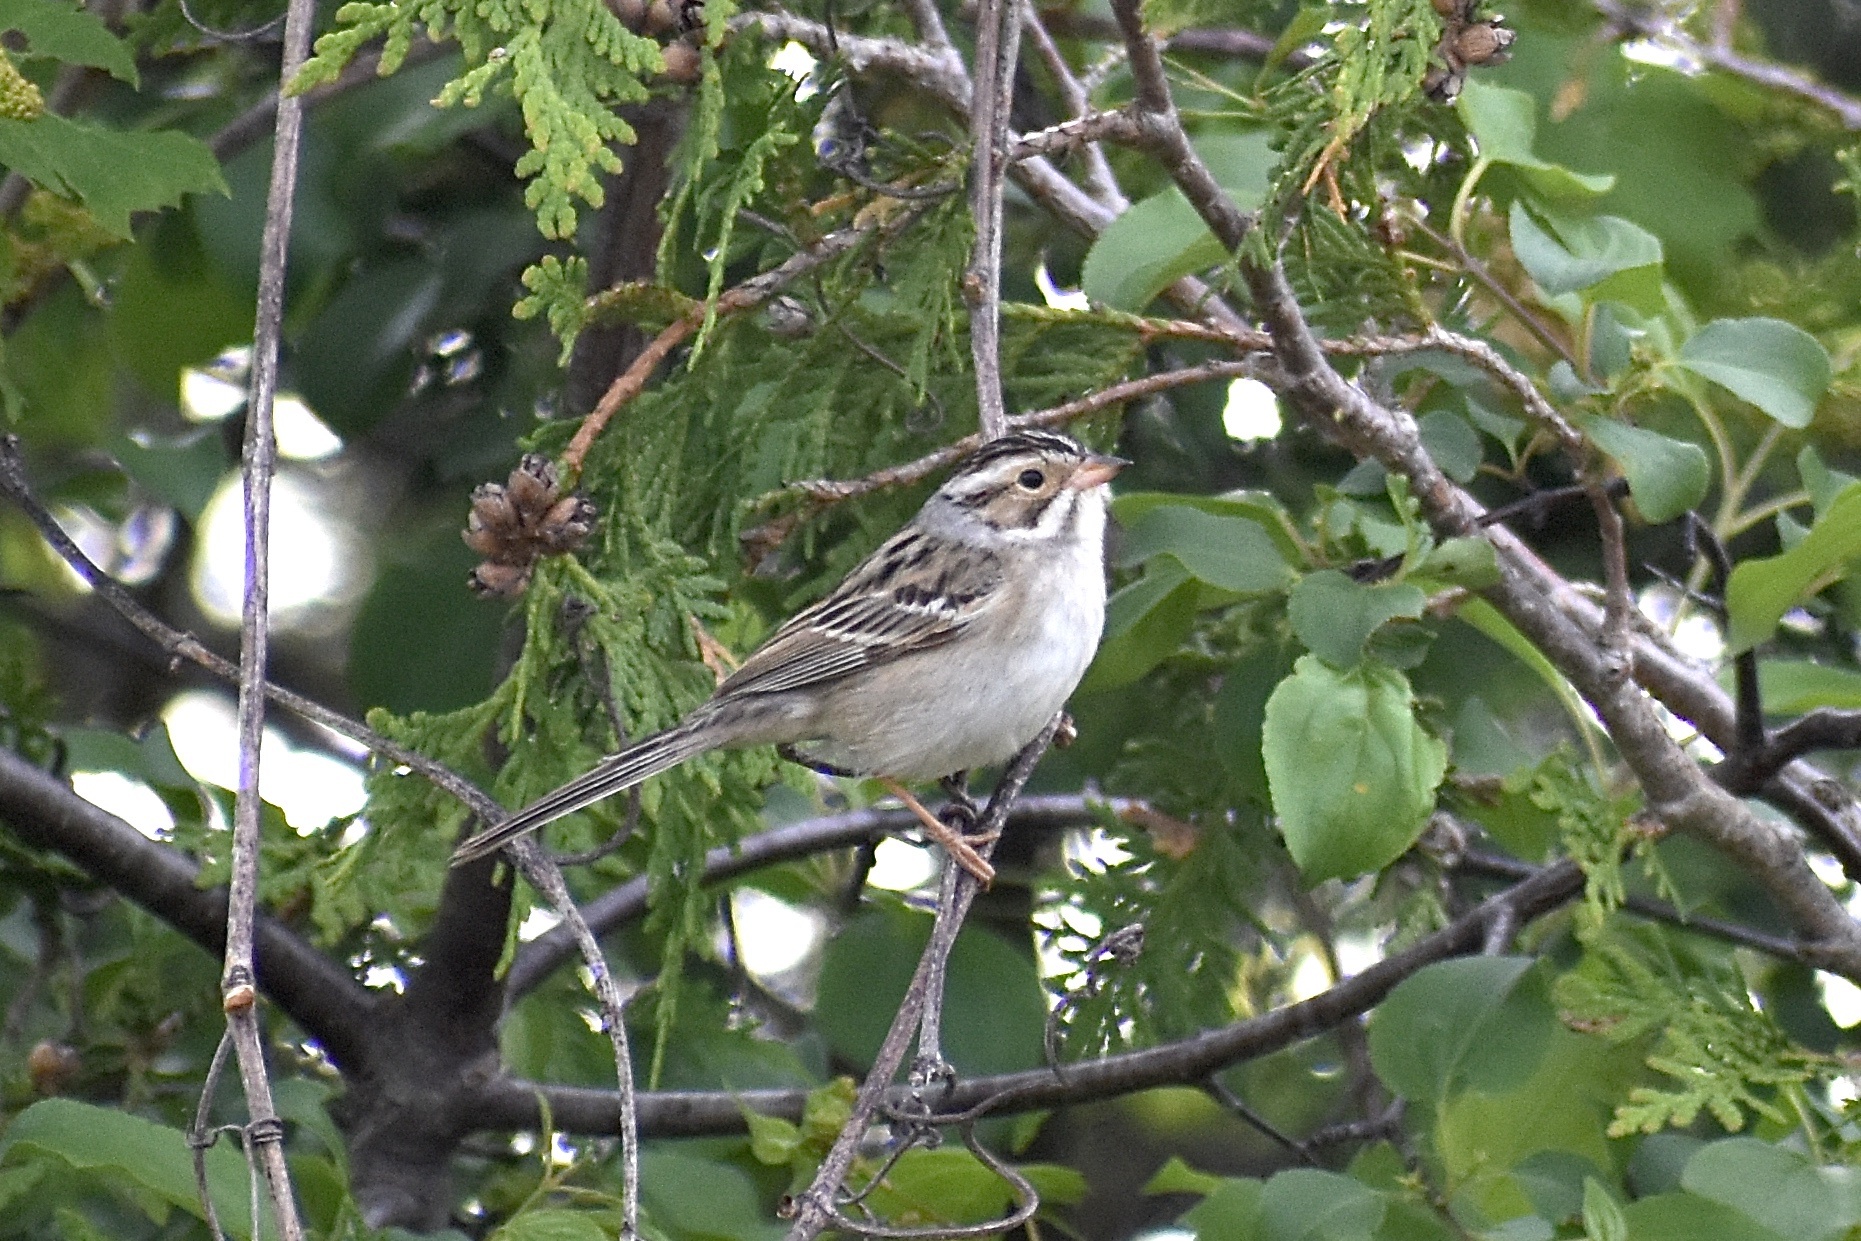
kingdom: Animalia
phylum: Chordata
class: Aves
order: Passeriformes
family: Passerellidae
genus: Spizella
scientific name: Spizella pallida
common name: Clay-colored sparrow
